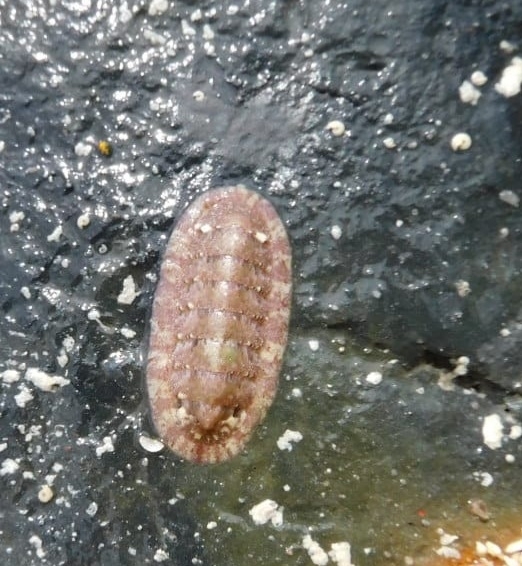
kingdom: Animalia
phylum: Mollusca
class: Polyplacophora
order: Chitonida
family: Chitonidae
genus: Rhyssoplax
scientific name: Rhyssoplax olivacea
